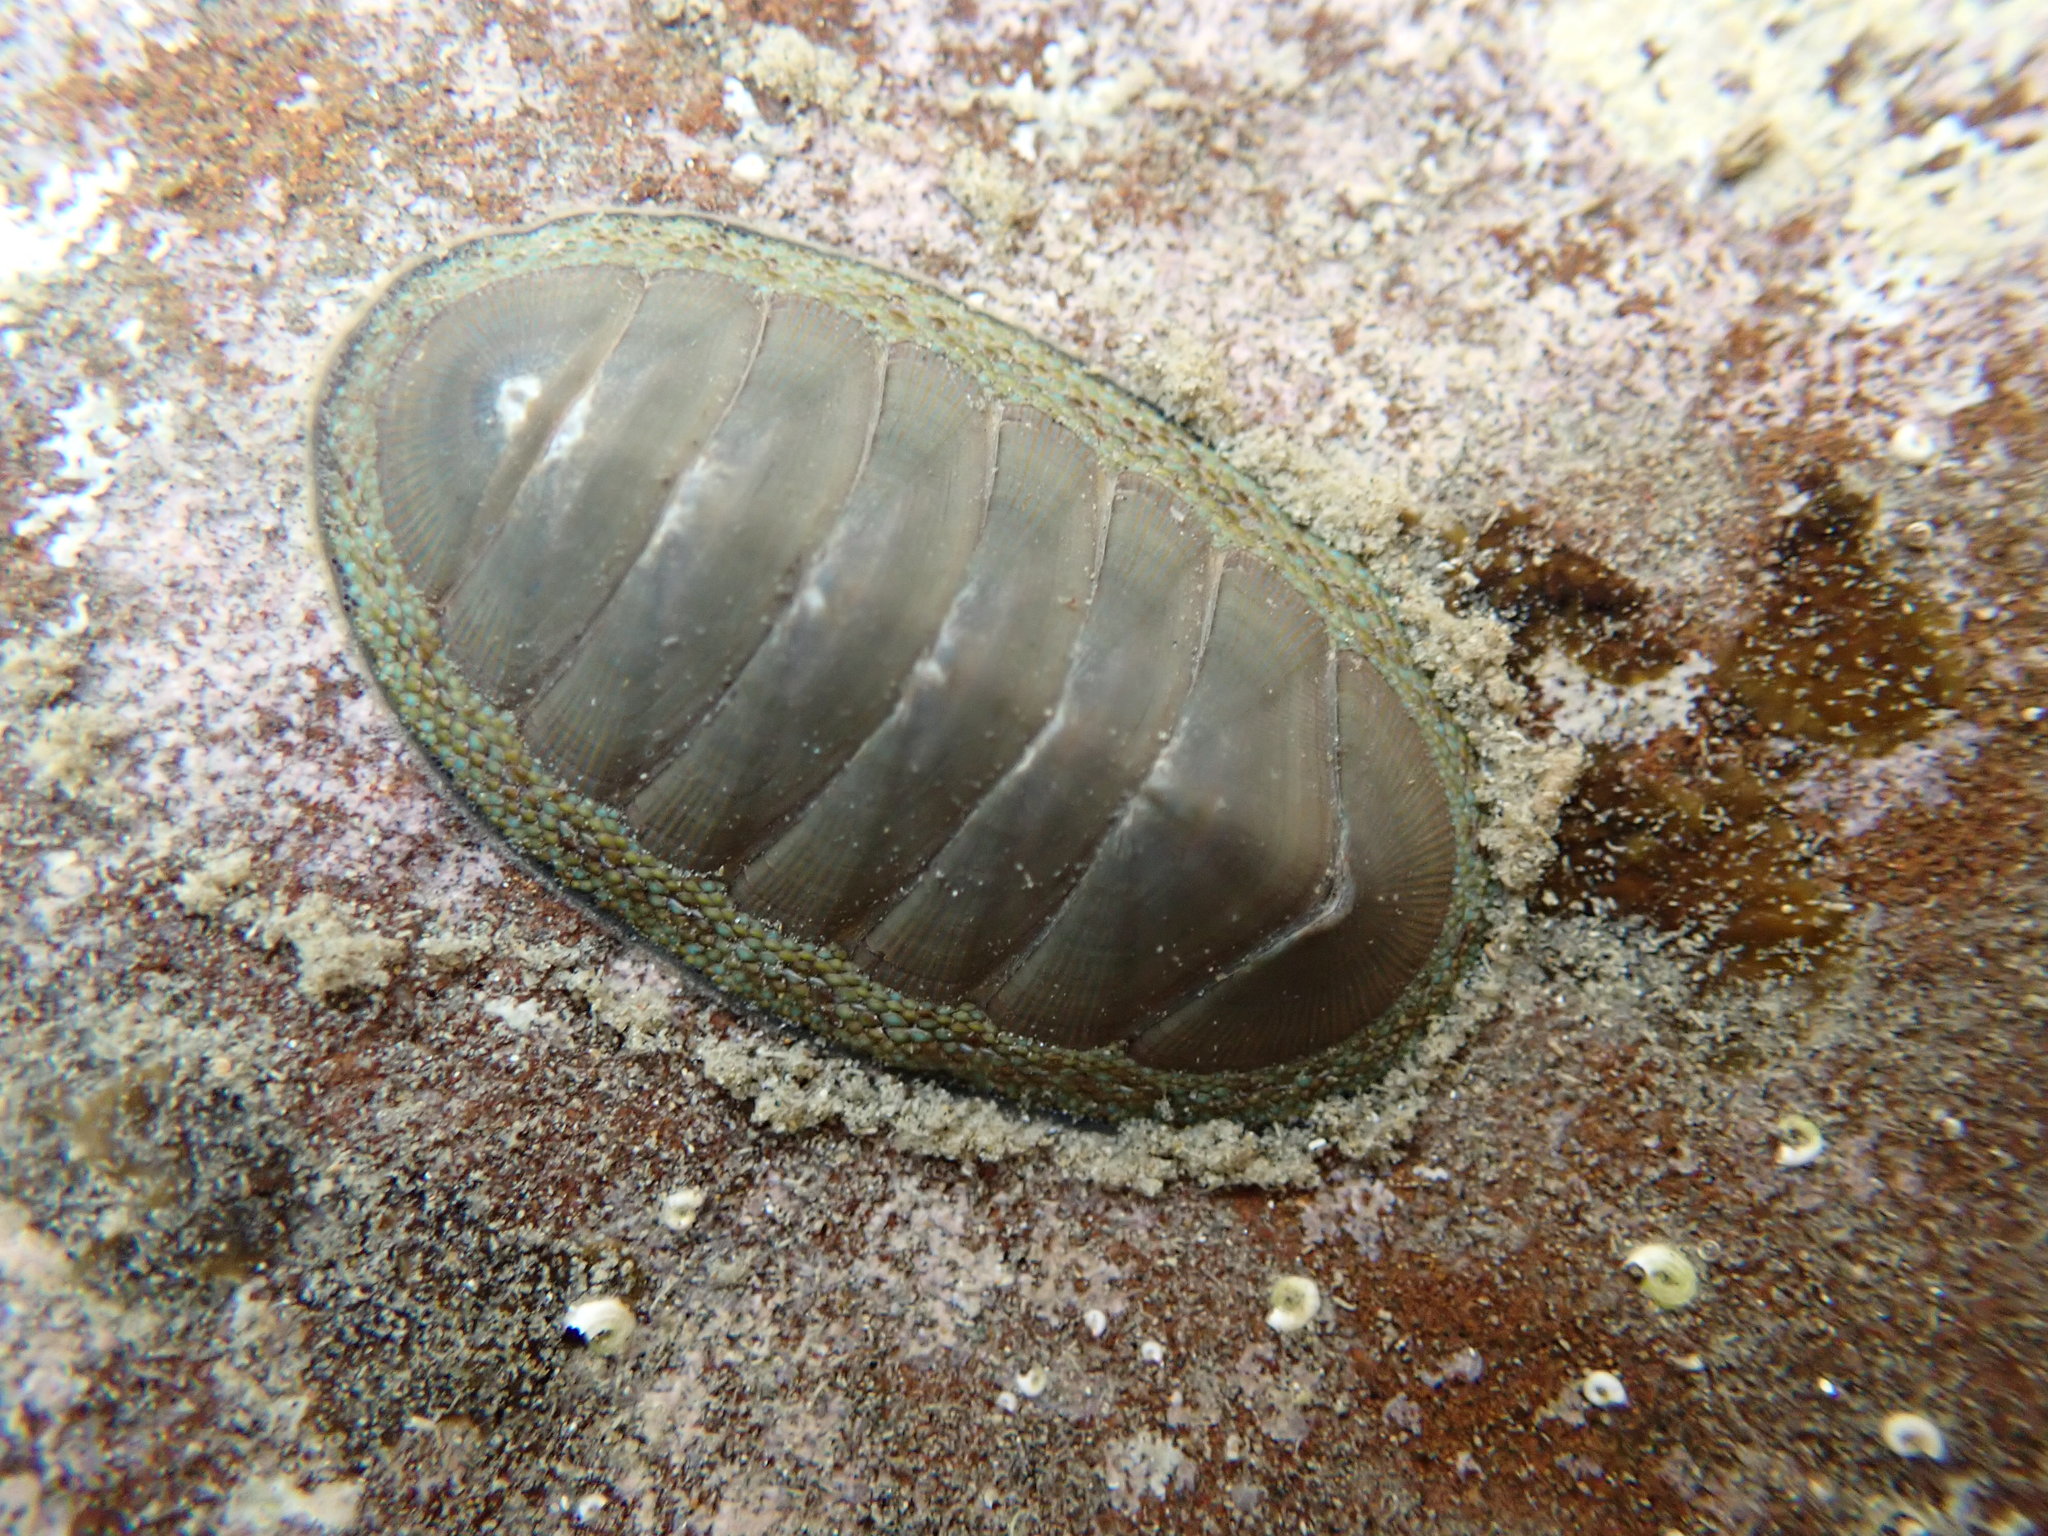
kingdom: Animalia
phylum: Mollusca
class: Polyplacophora
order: Chitonida
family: Chitonidae
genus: Chiton
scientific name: Chiton glaucus
